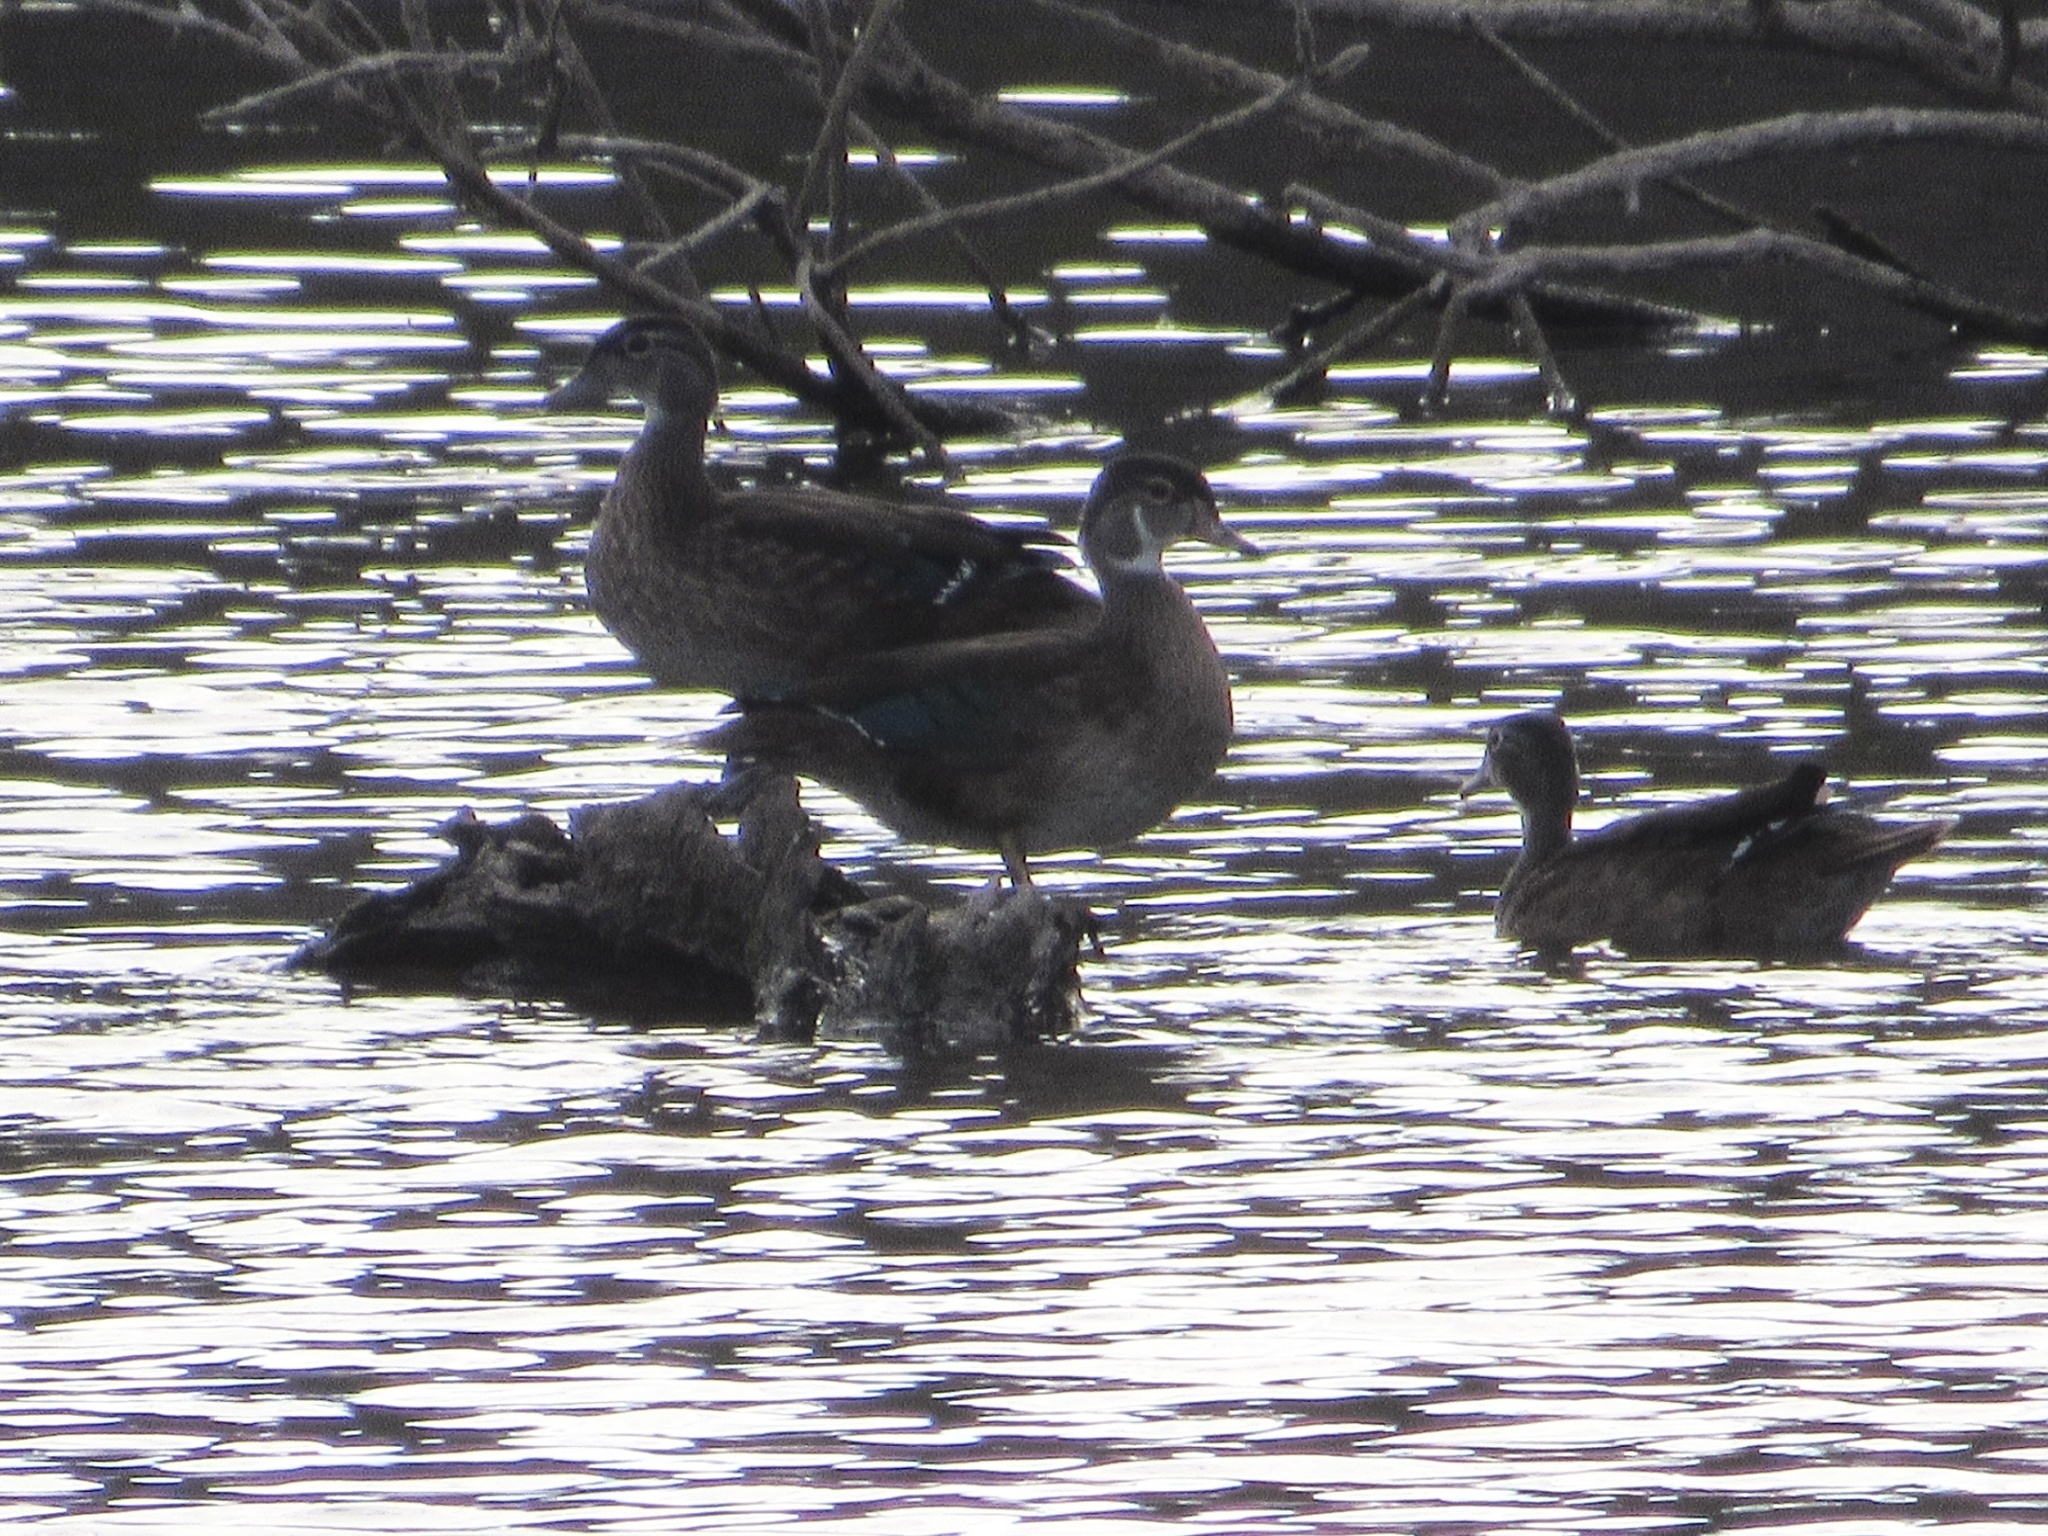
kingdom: Animalia
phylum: Chordata
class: Aves
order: Anseriformes
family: Anatidae
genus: Aix
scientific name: Aix sponsa
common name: Wood duck
